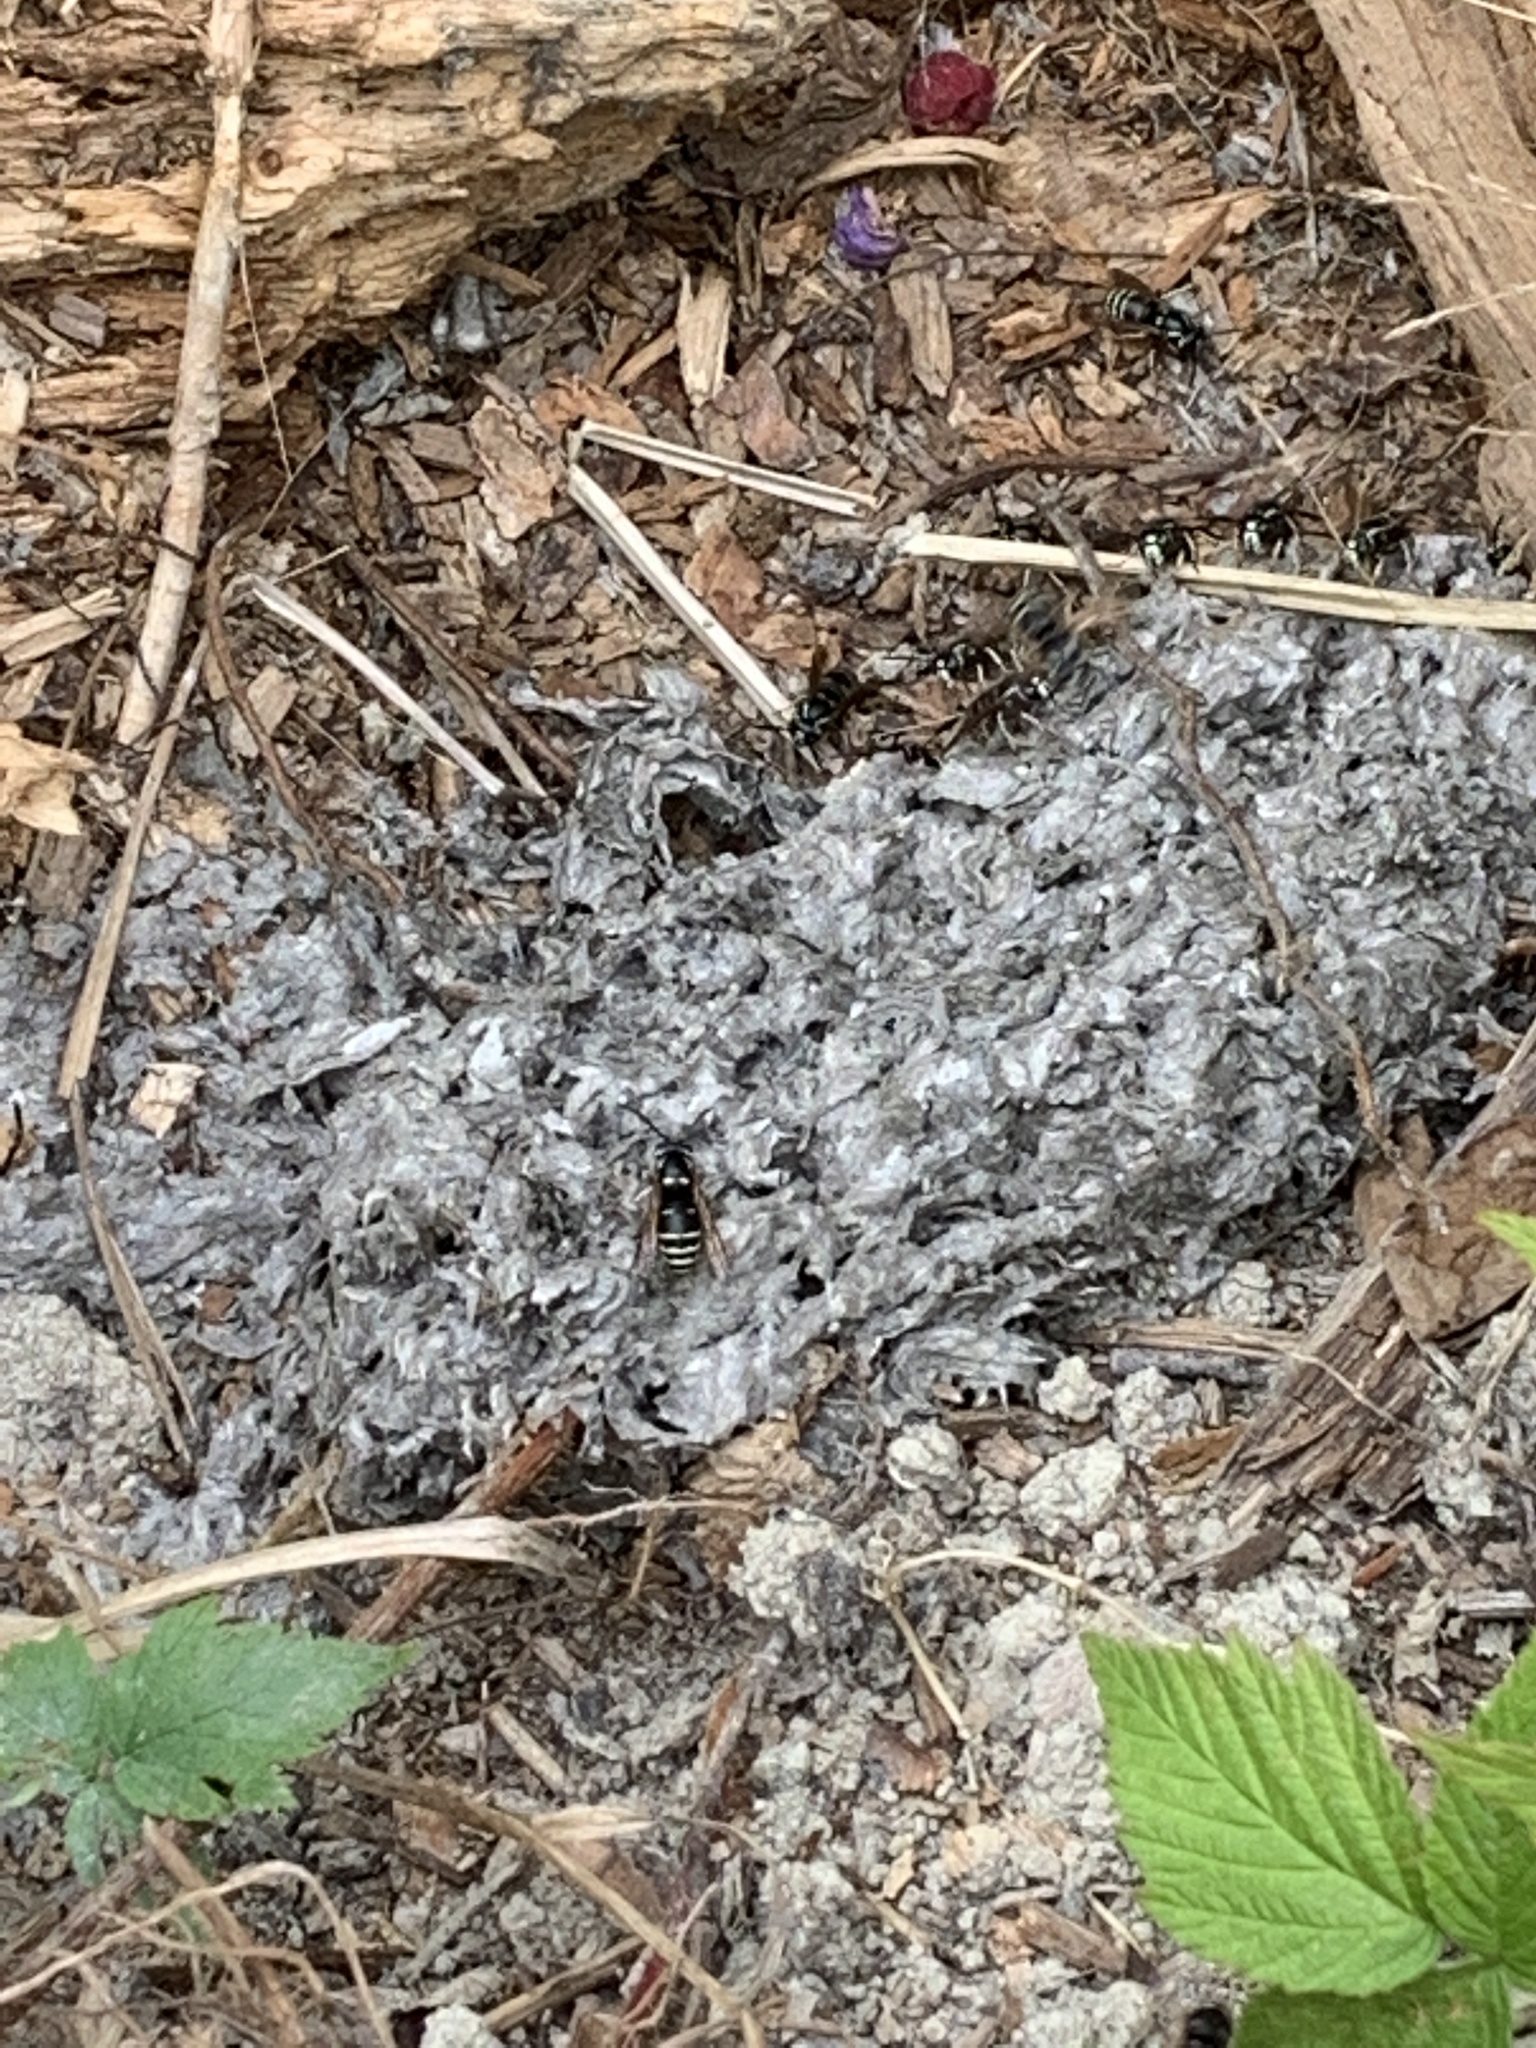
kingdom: Animalia
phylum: Arthropoda
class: Insecta
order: Hymenoptera
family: Vespidae
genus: Vespula
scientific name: Vespula consobrina
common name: Blackjacket
